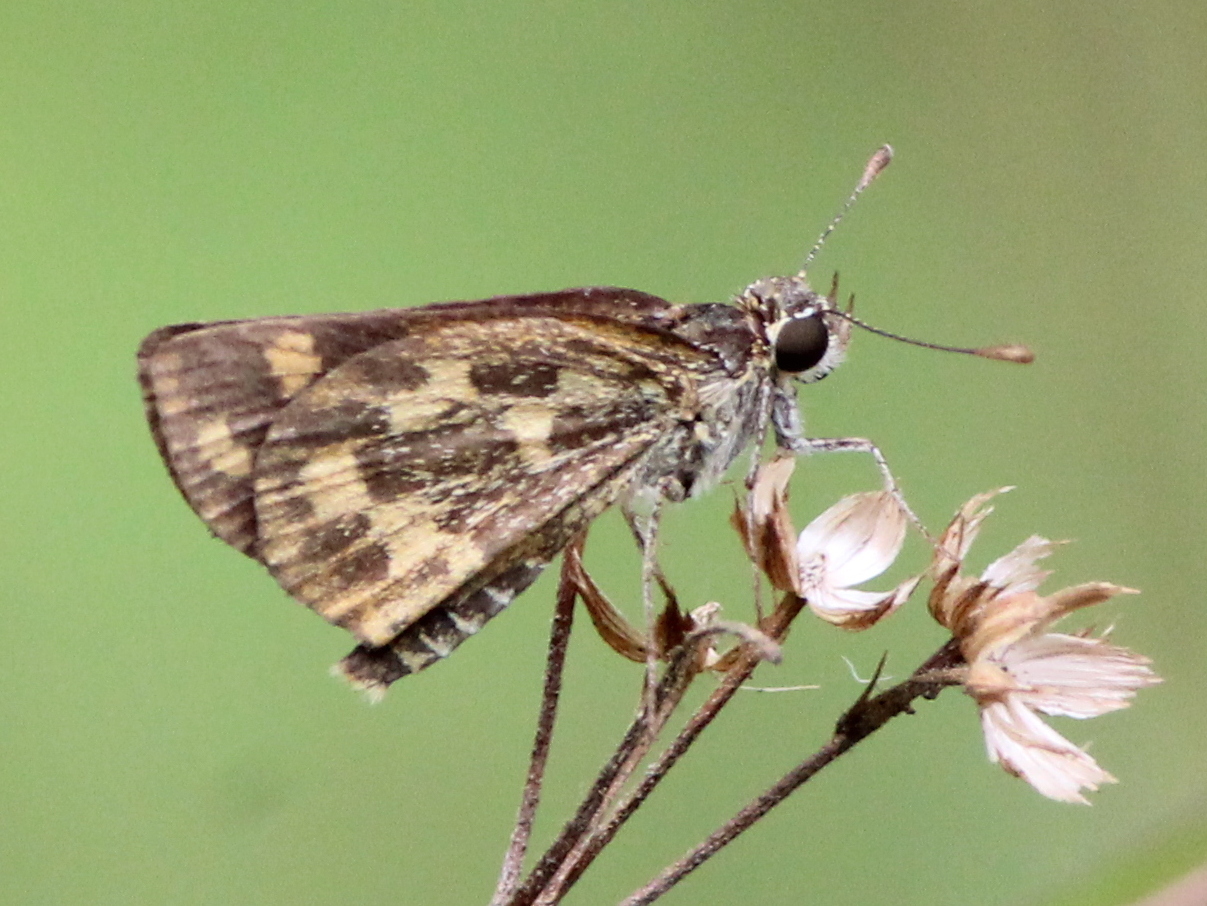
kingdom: Animalia
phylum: Arthropoda
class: Insecta
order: Lepidoptera
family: Hesperiidae
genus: Taractrocera
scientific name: Taractrocera ceramas
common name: Tamil grass dart
